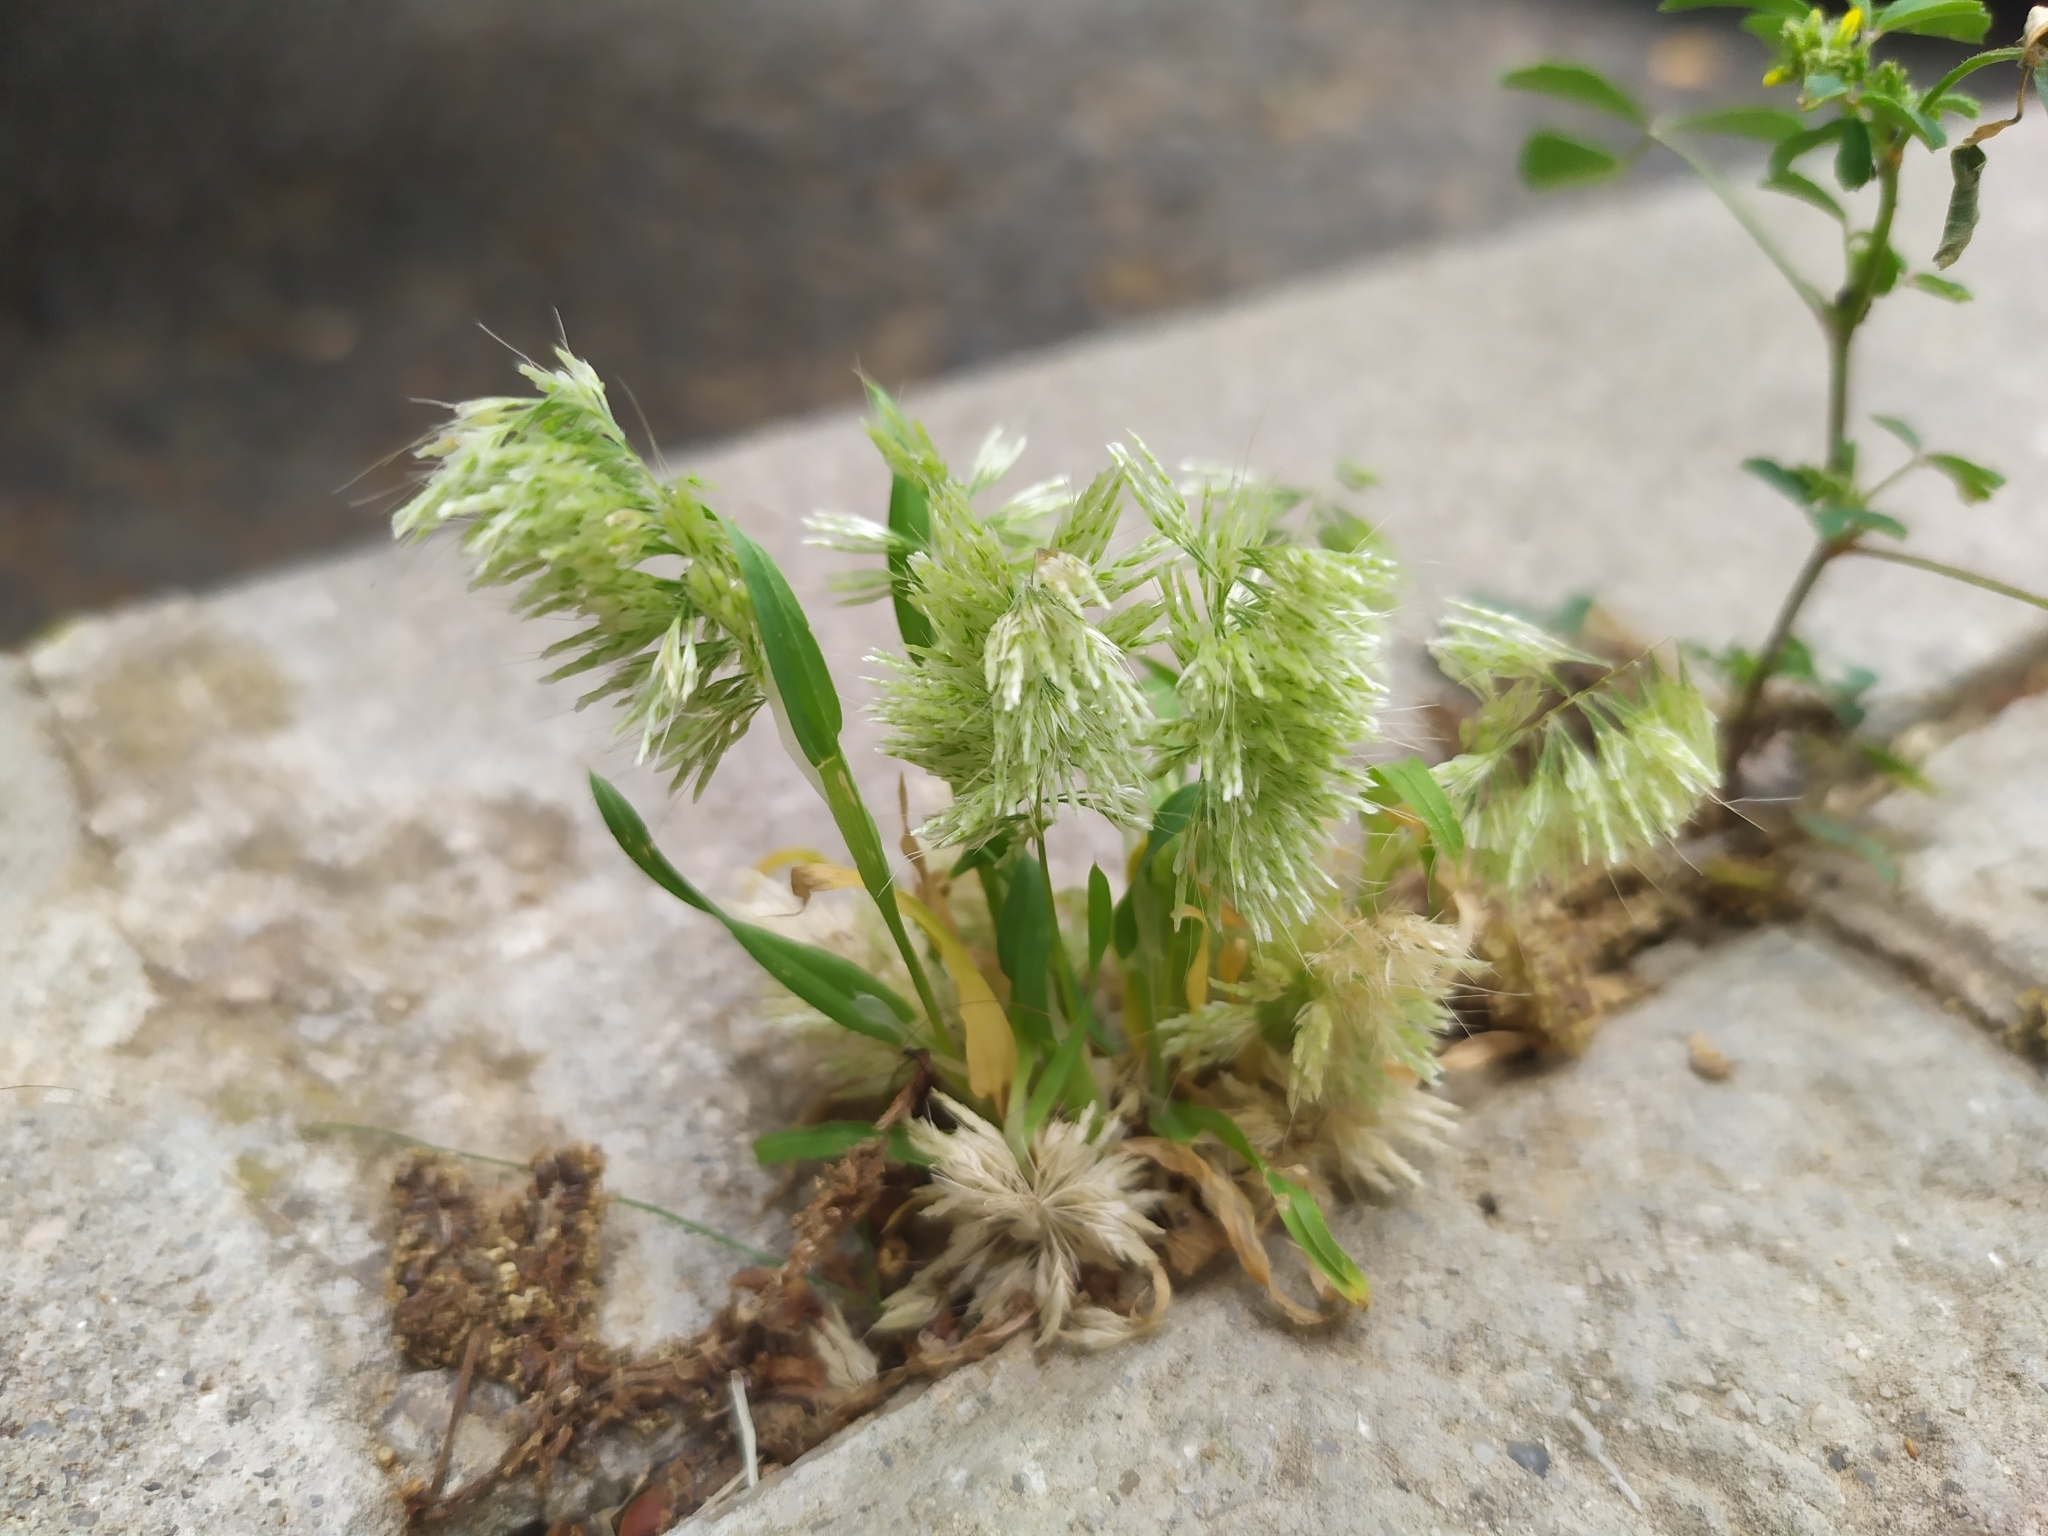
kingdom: Plantae
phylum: Tracheophyta
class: Liliopsida
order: Poales
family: Poaceae
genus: Lamarckia
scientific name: Lamarckia aurea
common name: Golden dog's-tail
